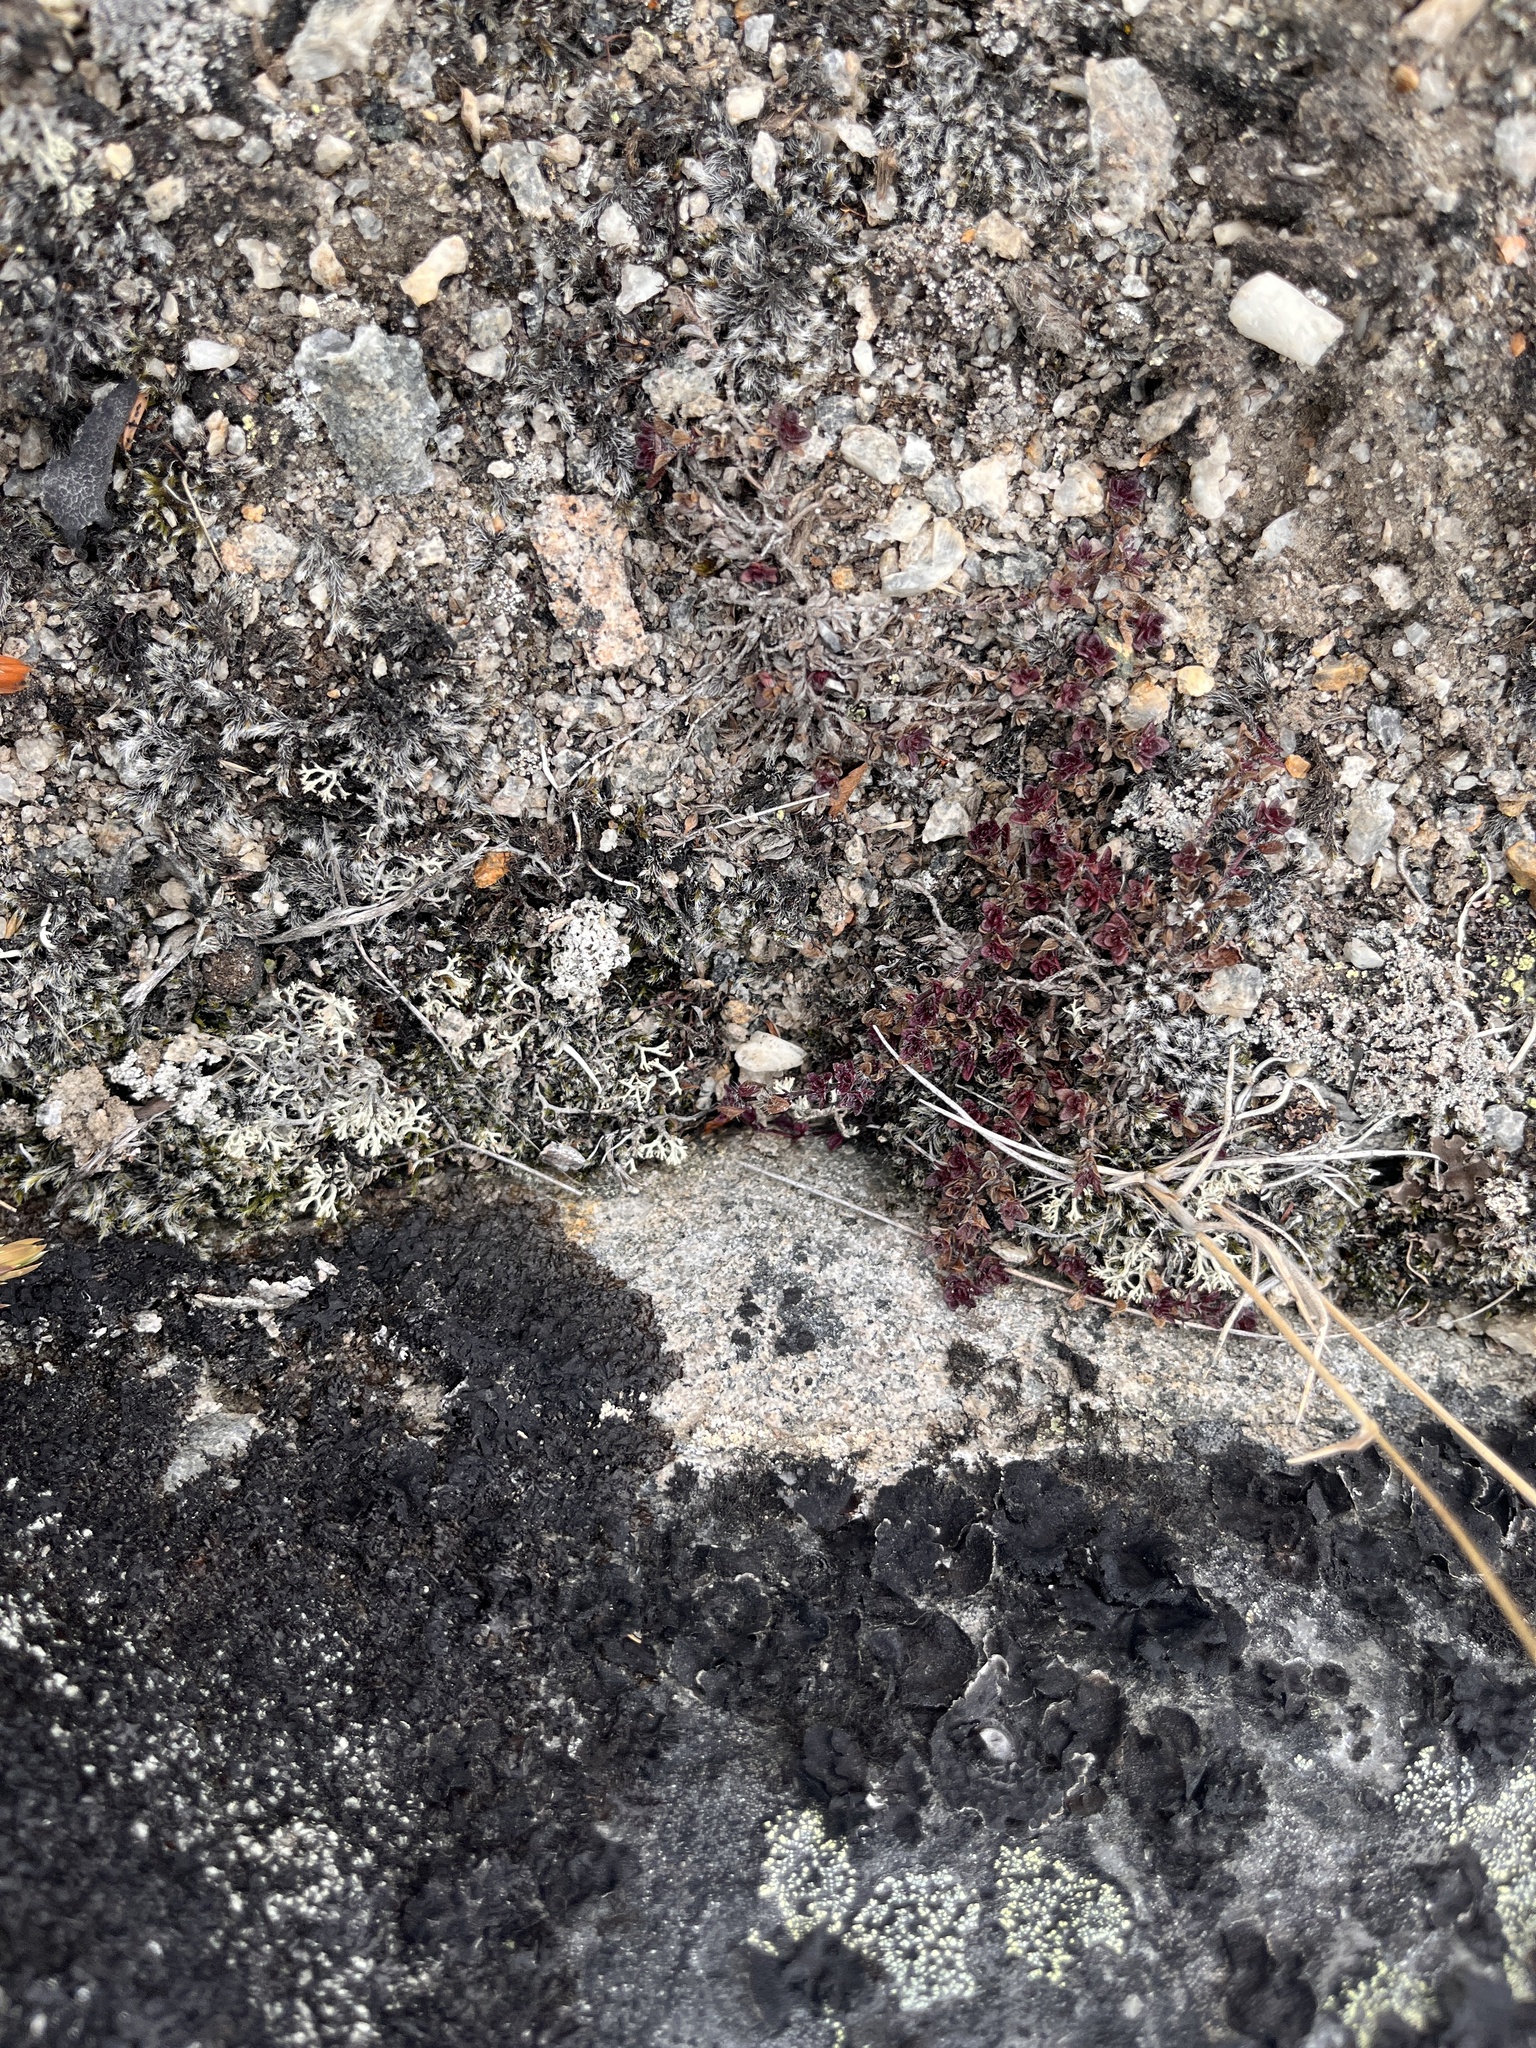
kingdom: Plantae
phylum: Tracheophyta
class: Magnoliopsida
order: Lamiales
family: Lamiaceae
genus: Thymus
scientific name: Thymus praecox
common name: Wild thyme
